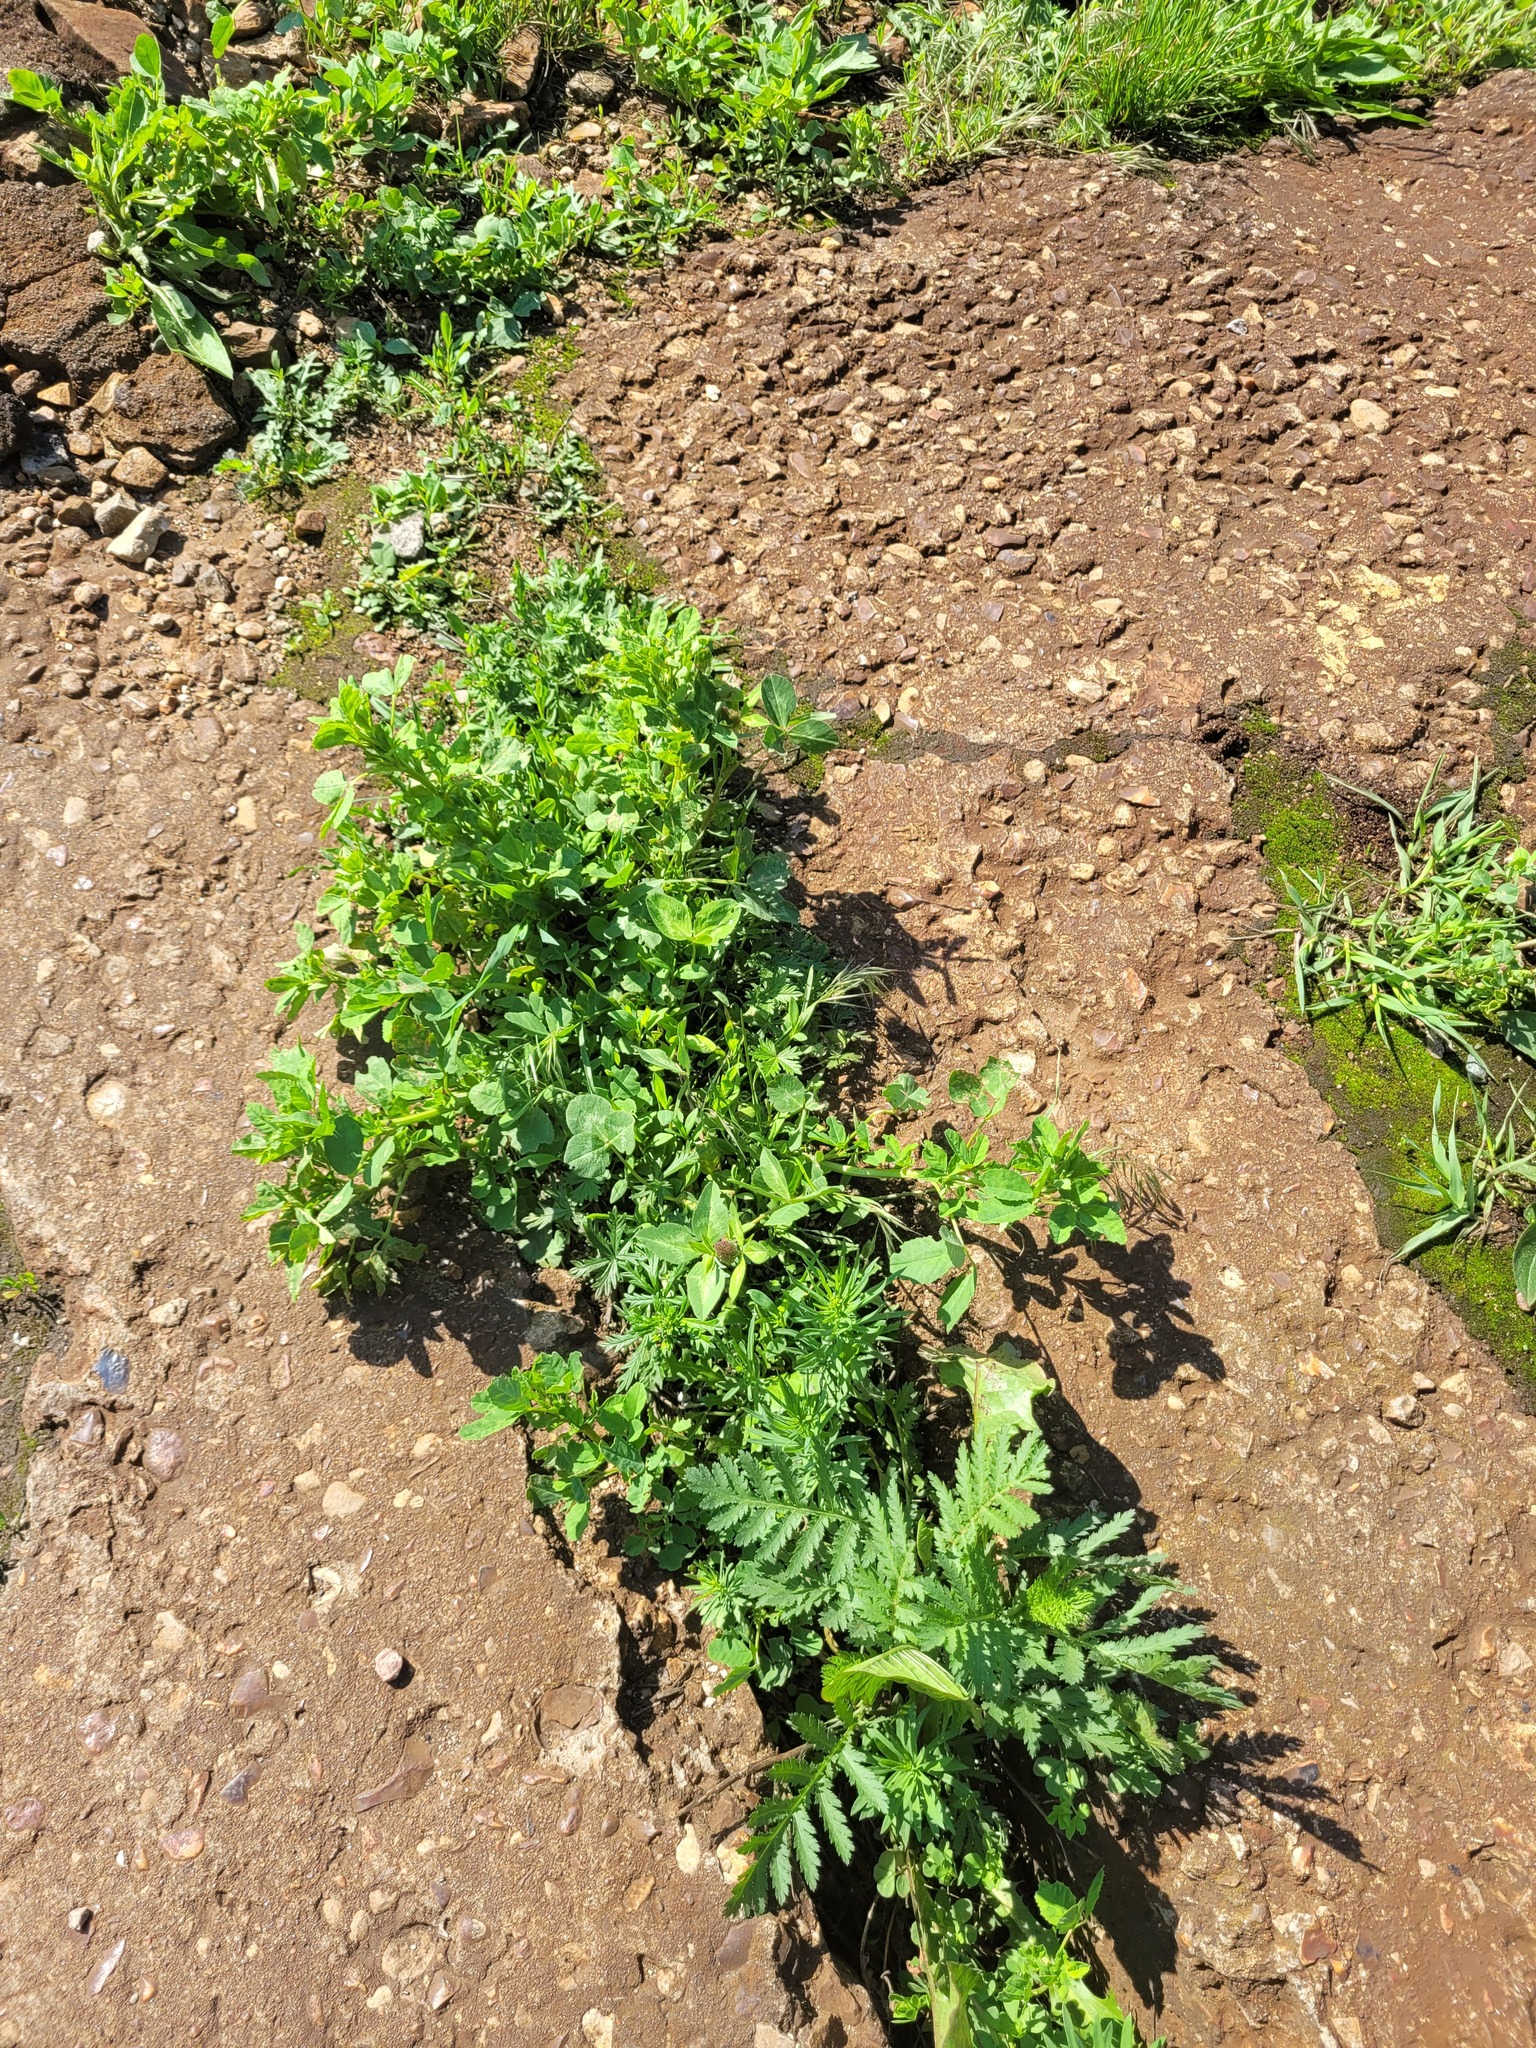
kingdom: Plantae
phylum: Tracheophyta
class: Magnoliopsida
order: Fabales
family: Fabaceae
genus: Trifolium
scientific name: Trifolium pratense
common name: Red clover
